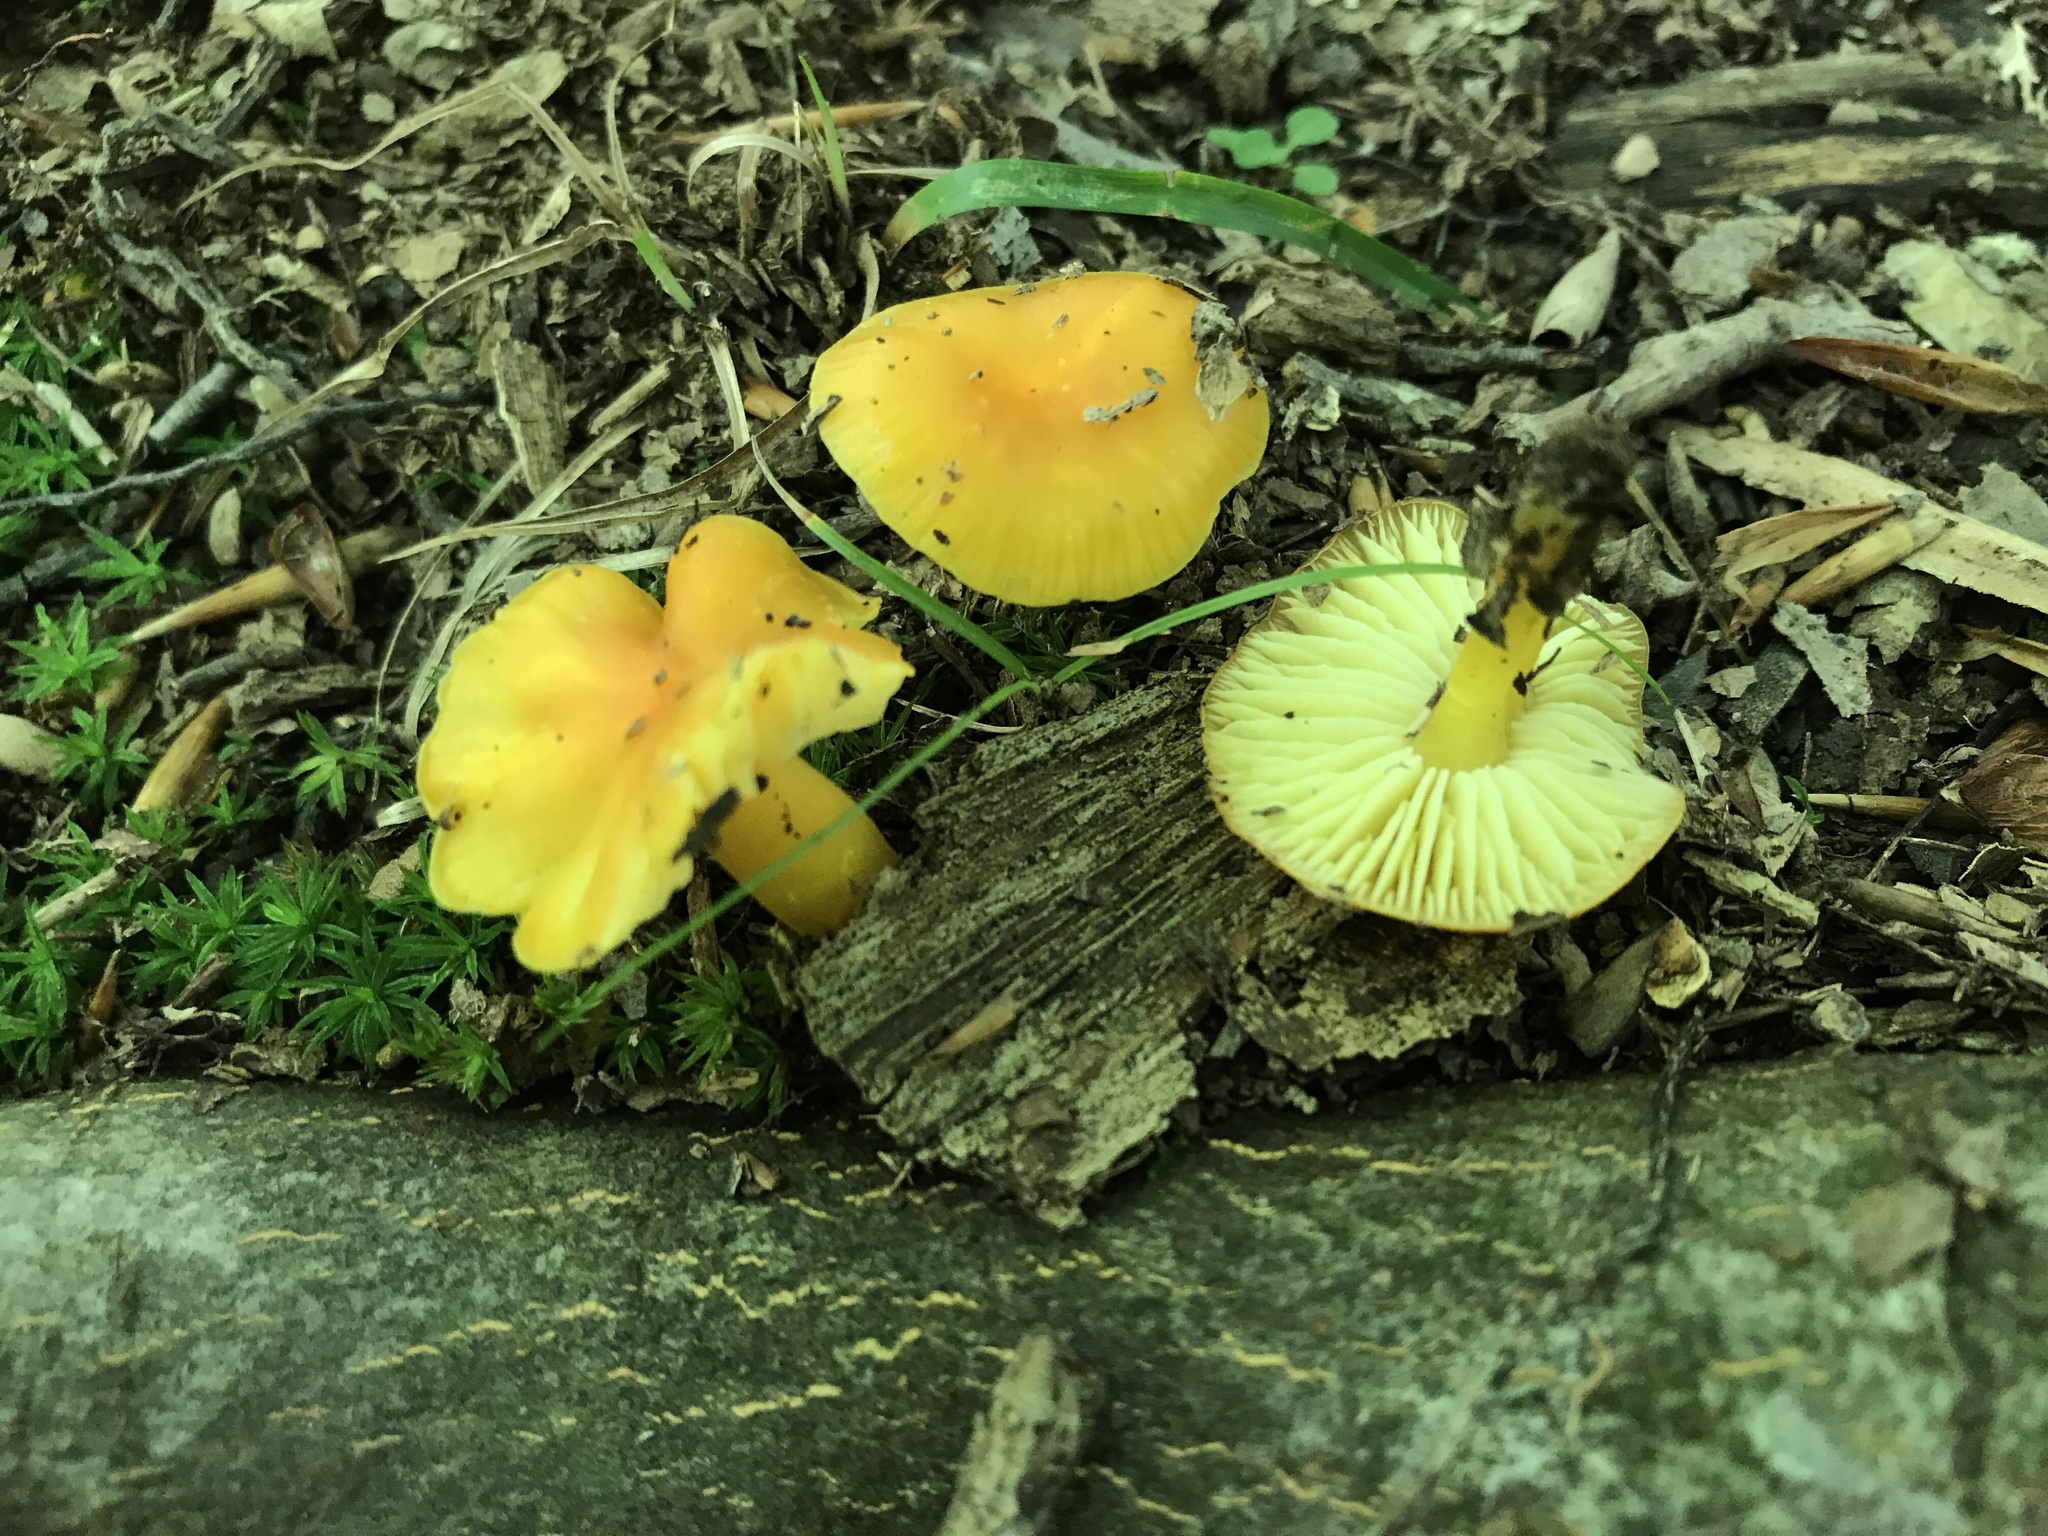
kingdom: Fungi
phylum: Basidiomycota
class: Agaricomycetes
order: Agaricales
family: Hygrophoraceae
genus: Hygrocybe
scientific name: Hygrocybe chlorophana
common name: Golden waxcap
